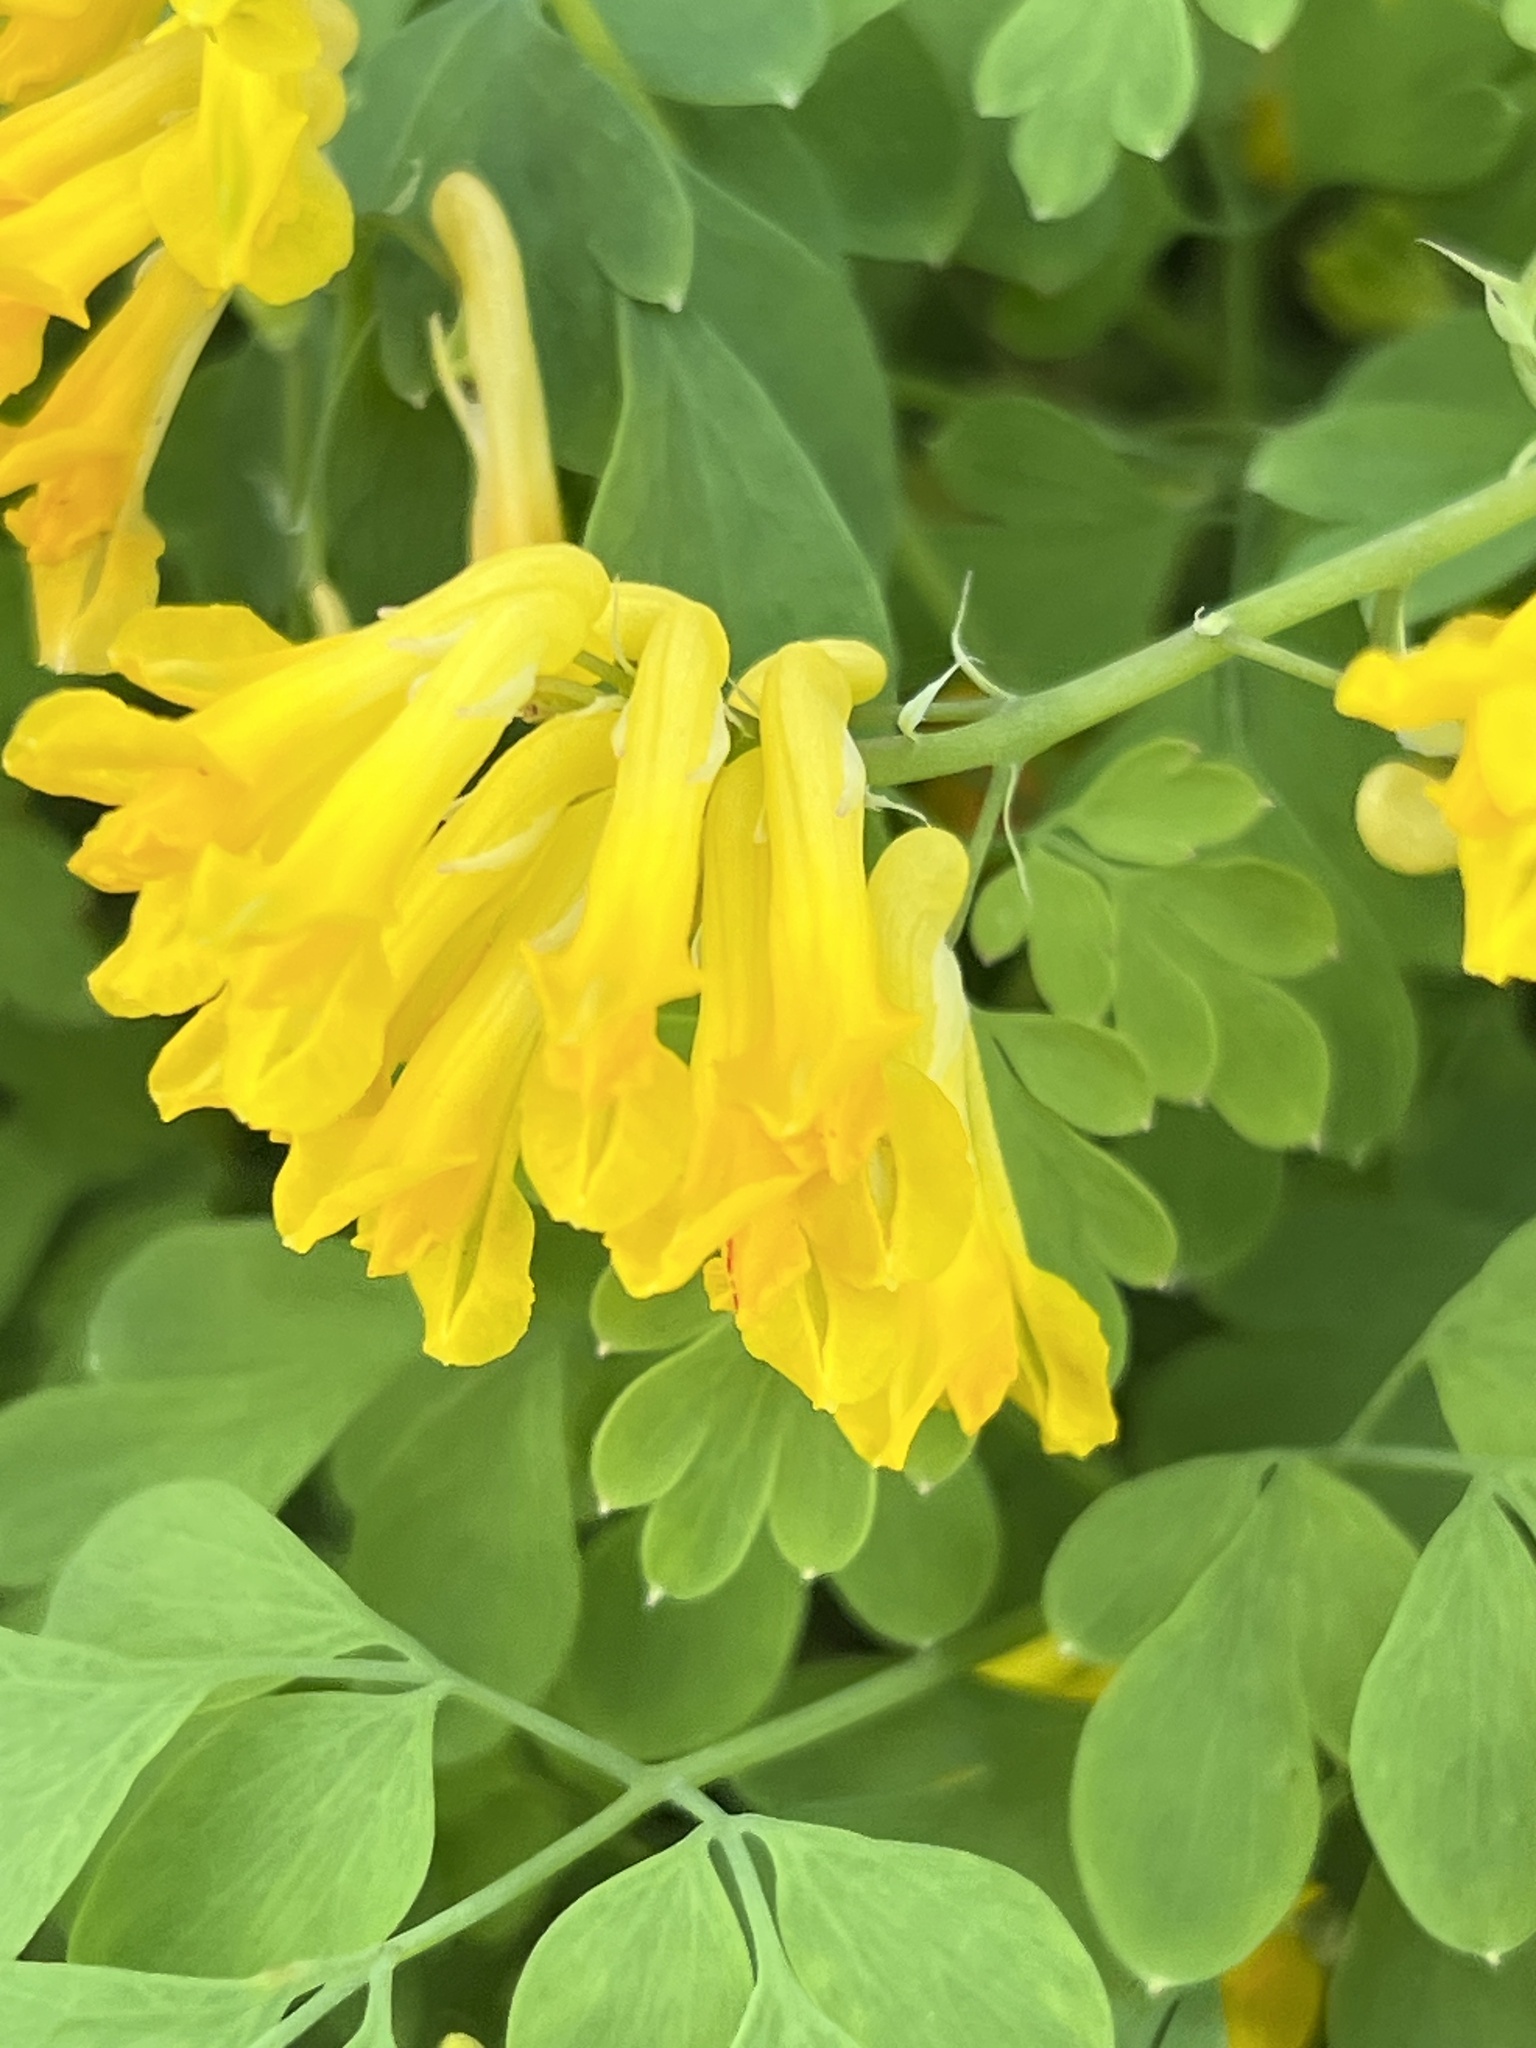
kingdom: Plantae
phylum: Tracheophyta
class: Magnoliopsida
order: Ranunculales
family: Papaveraceae
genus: Pseudofumaria
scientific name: Pseudofumaria lutea
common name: Yellow corydalis
